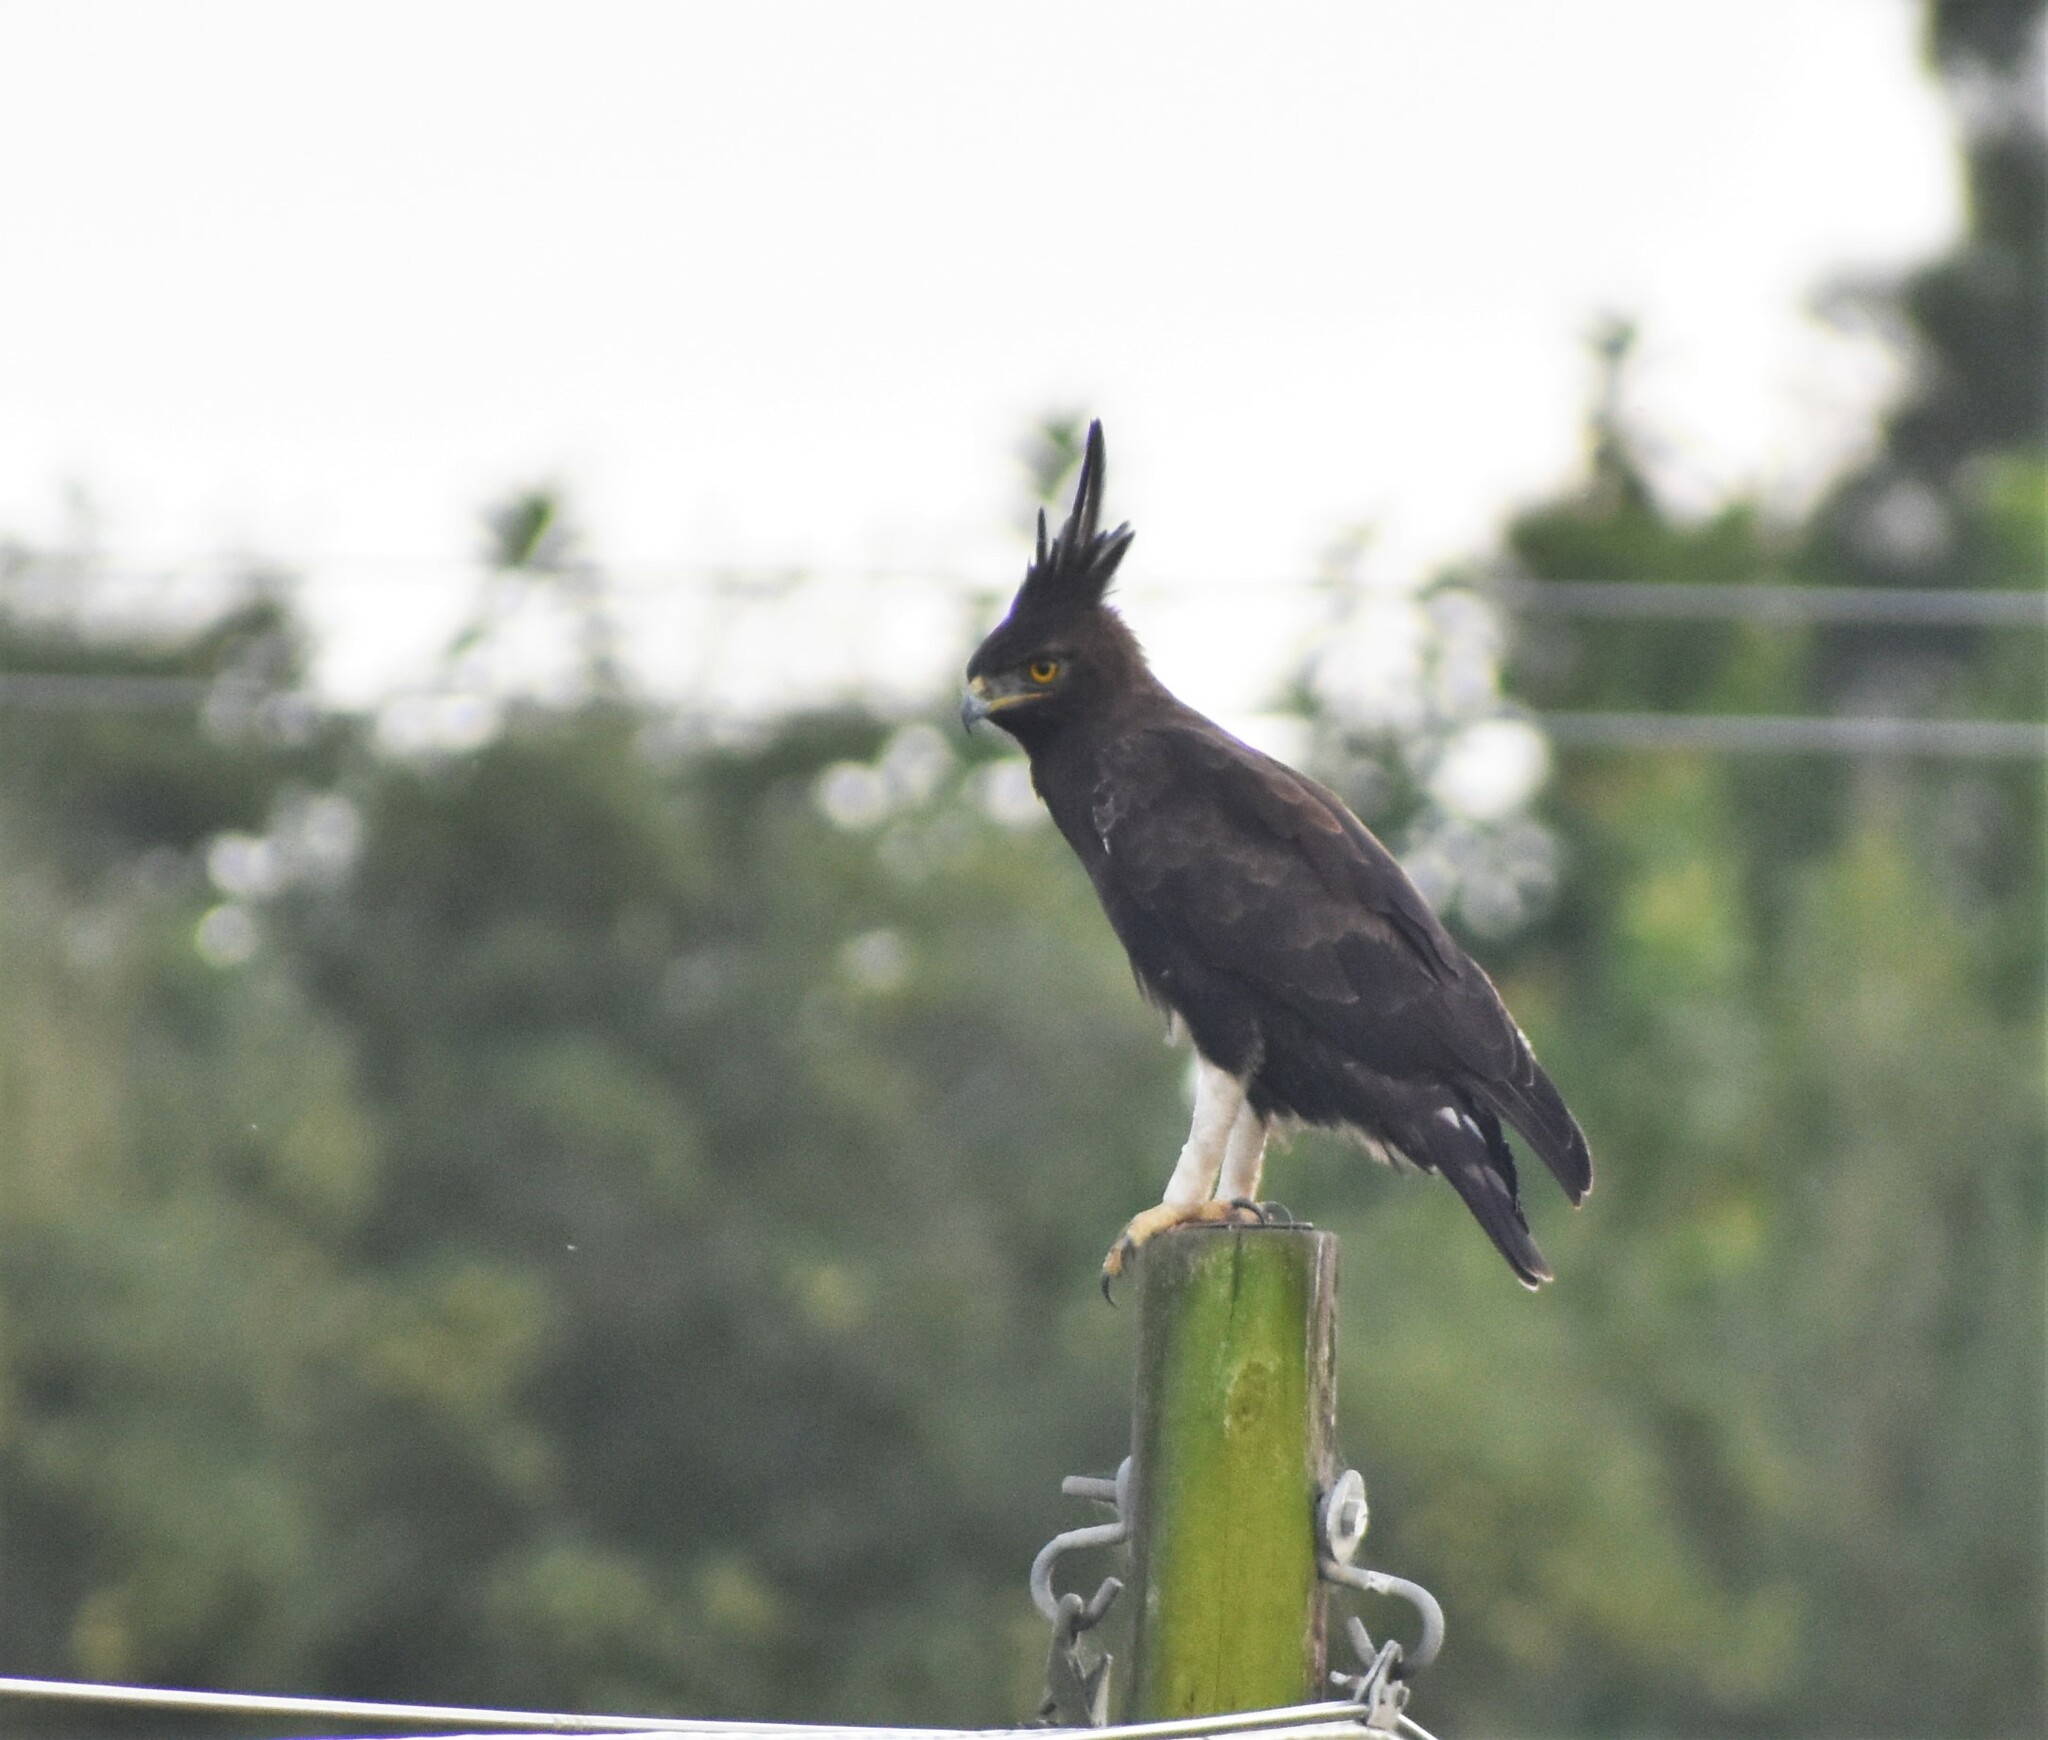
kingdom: Animalia
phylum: Chordata
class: Aves
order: Accipitriformes
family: Accipitridae
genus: Lophaetus
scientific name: Lophaetus occipitalis
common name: Long-crested eagle
